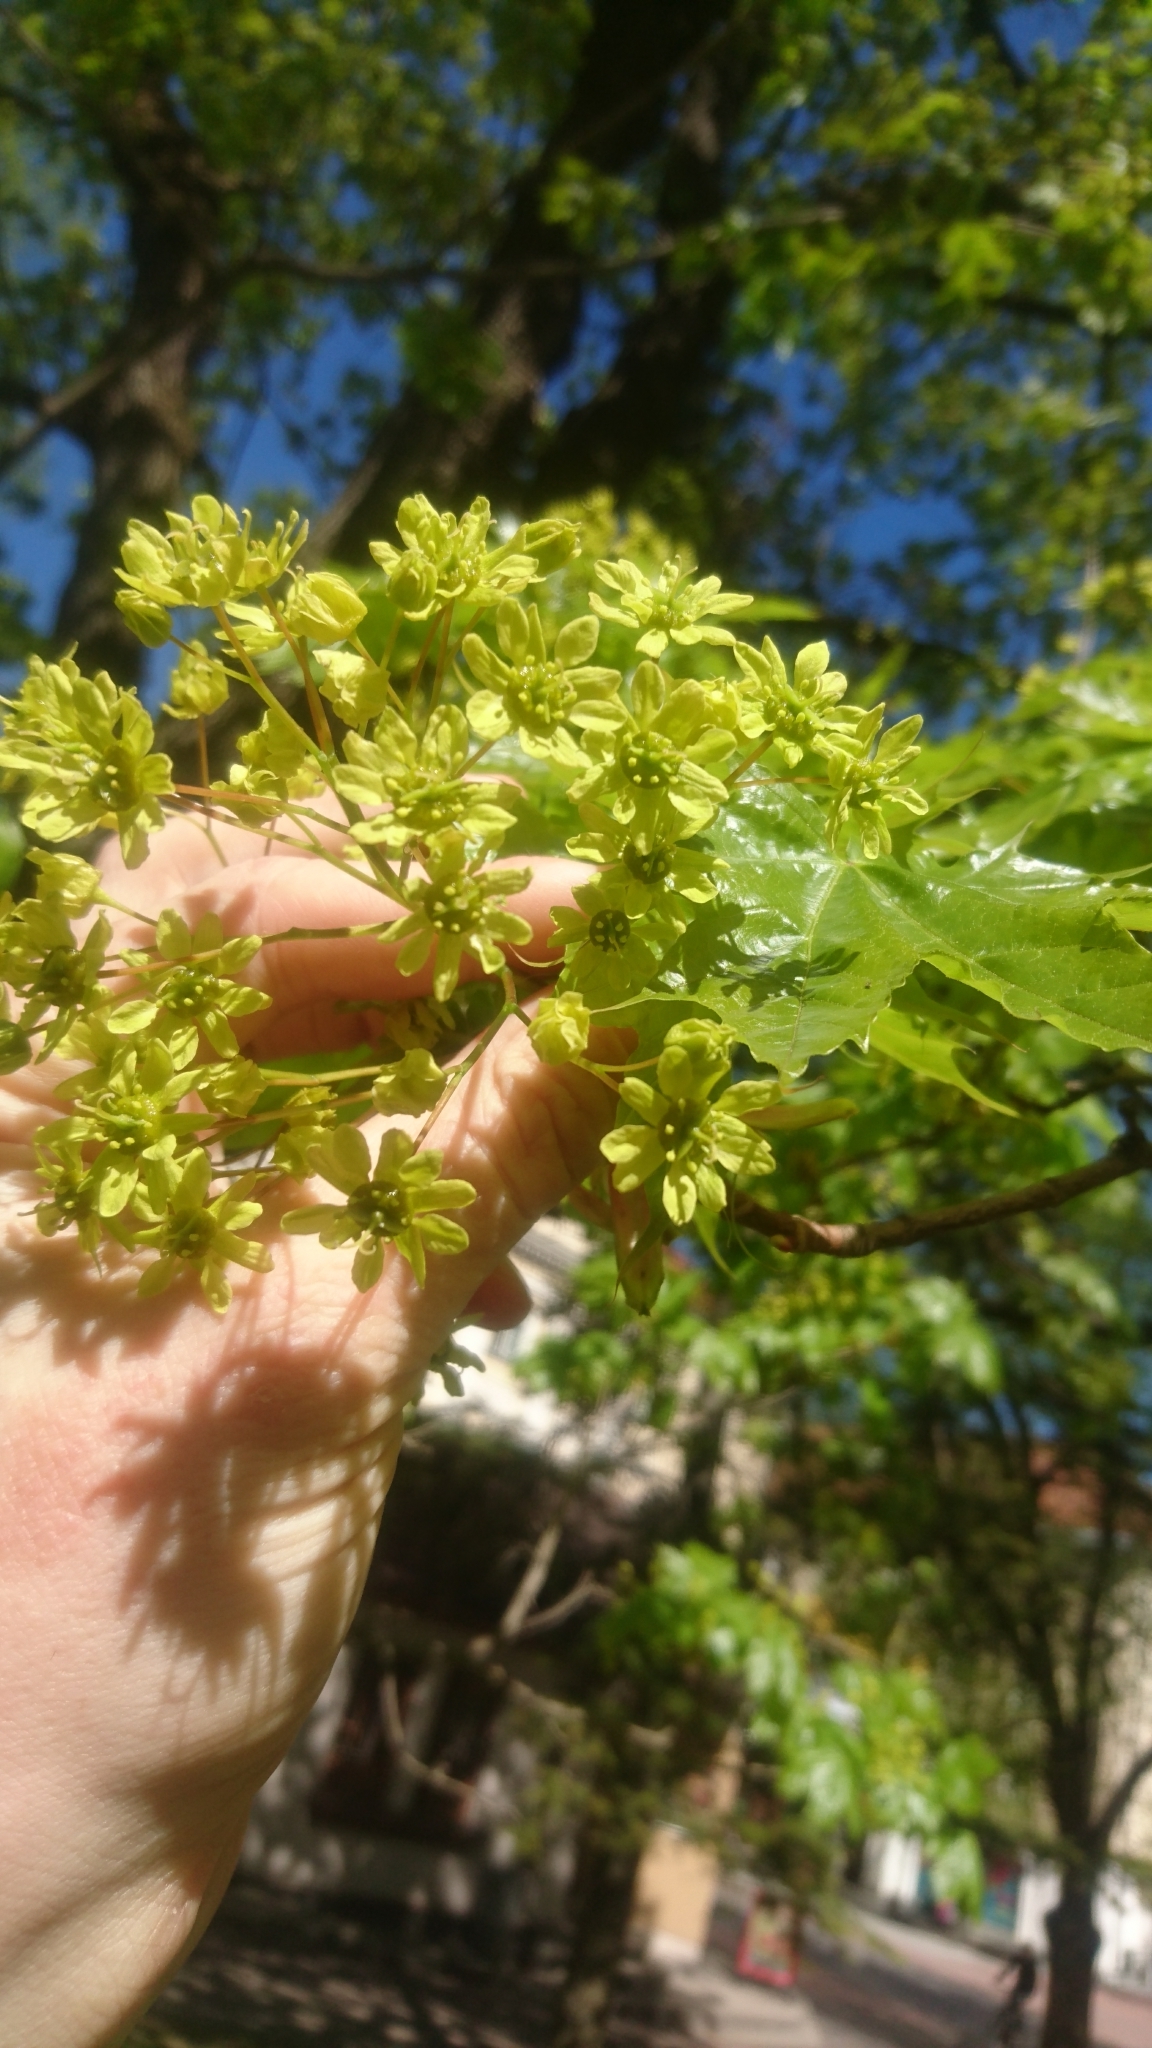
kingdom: Plantae
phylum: Tracheophyta
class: Magnoliopsida
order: Sapindales
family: Sapindaceae
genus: Acer
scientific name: Acer platanoides
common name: Norway maple
